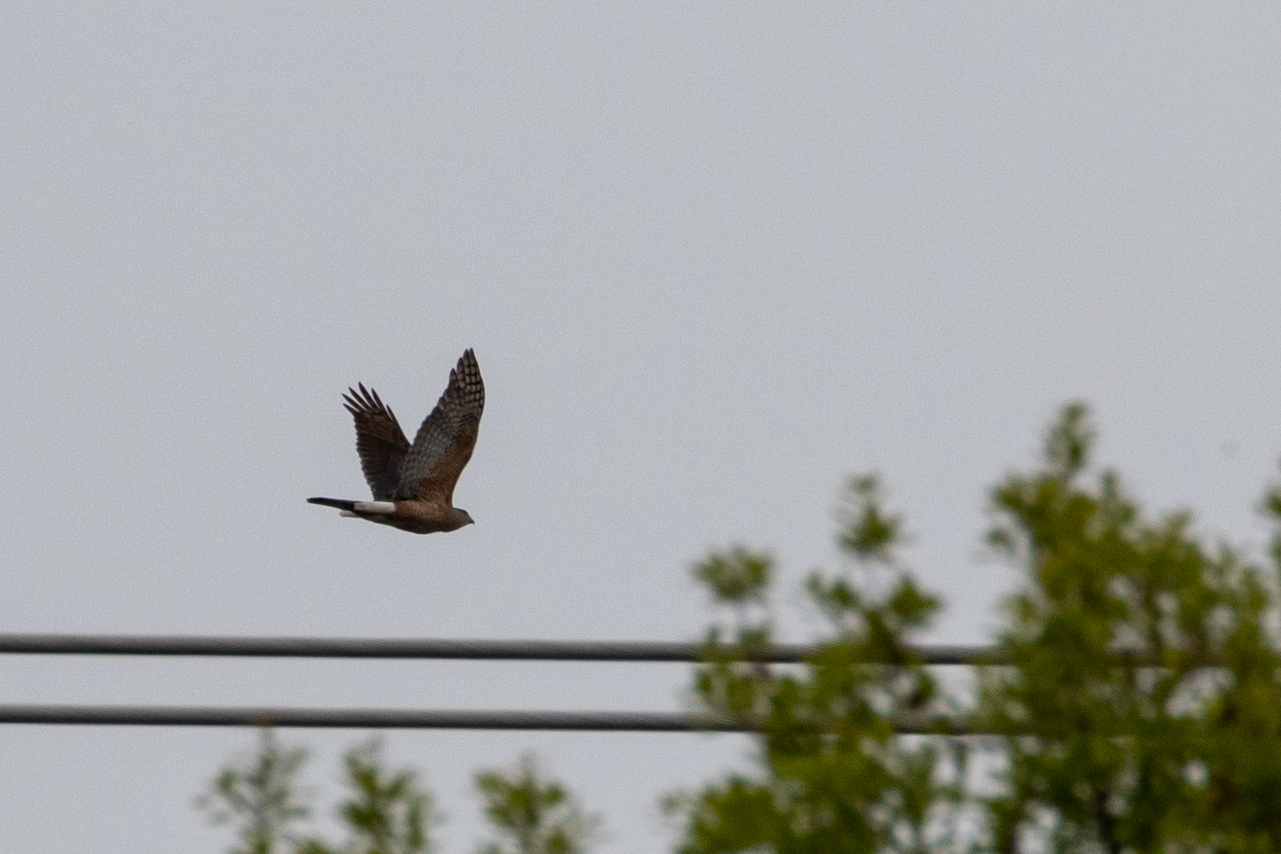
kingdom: Animalia
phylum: Chordata
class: Aves
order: Accipitriformes
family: Accipitridae
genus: Accipiter
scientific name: Accipiter cooperii
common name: Cooper's hawk
